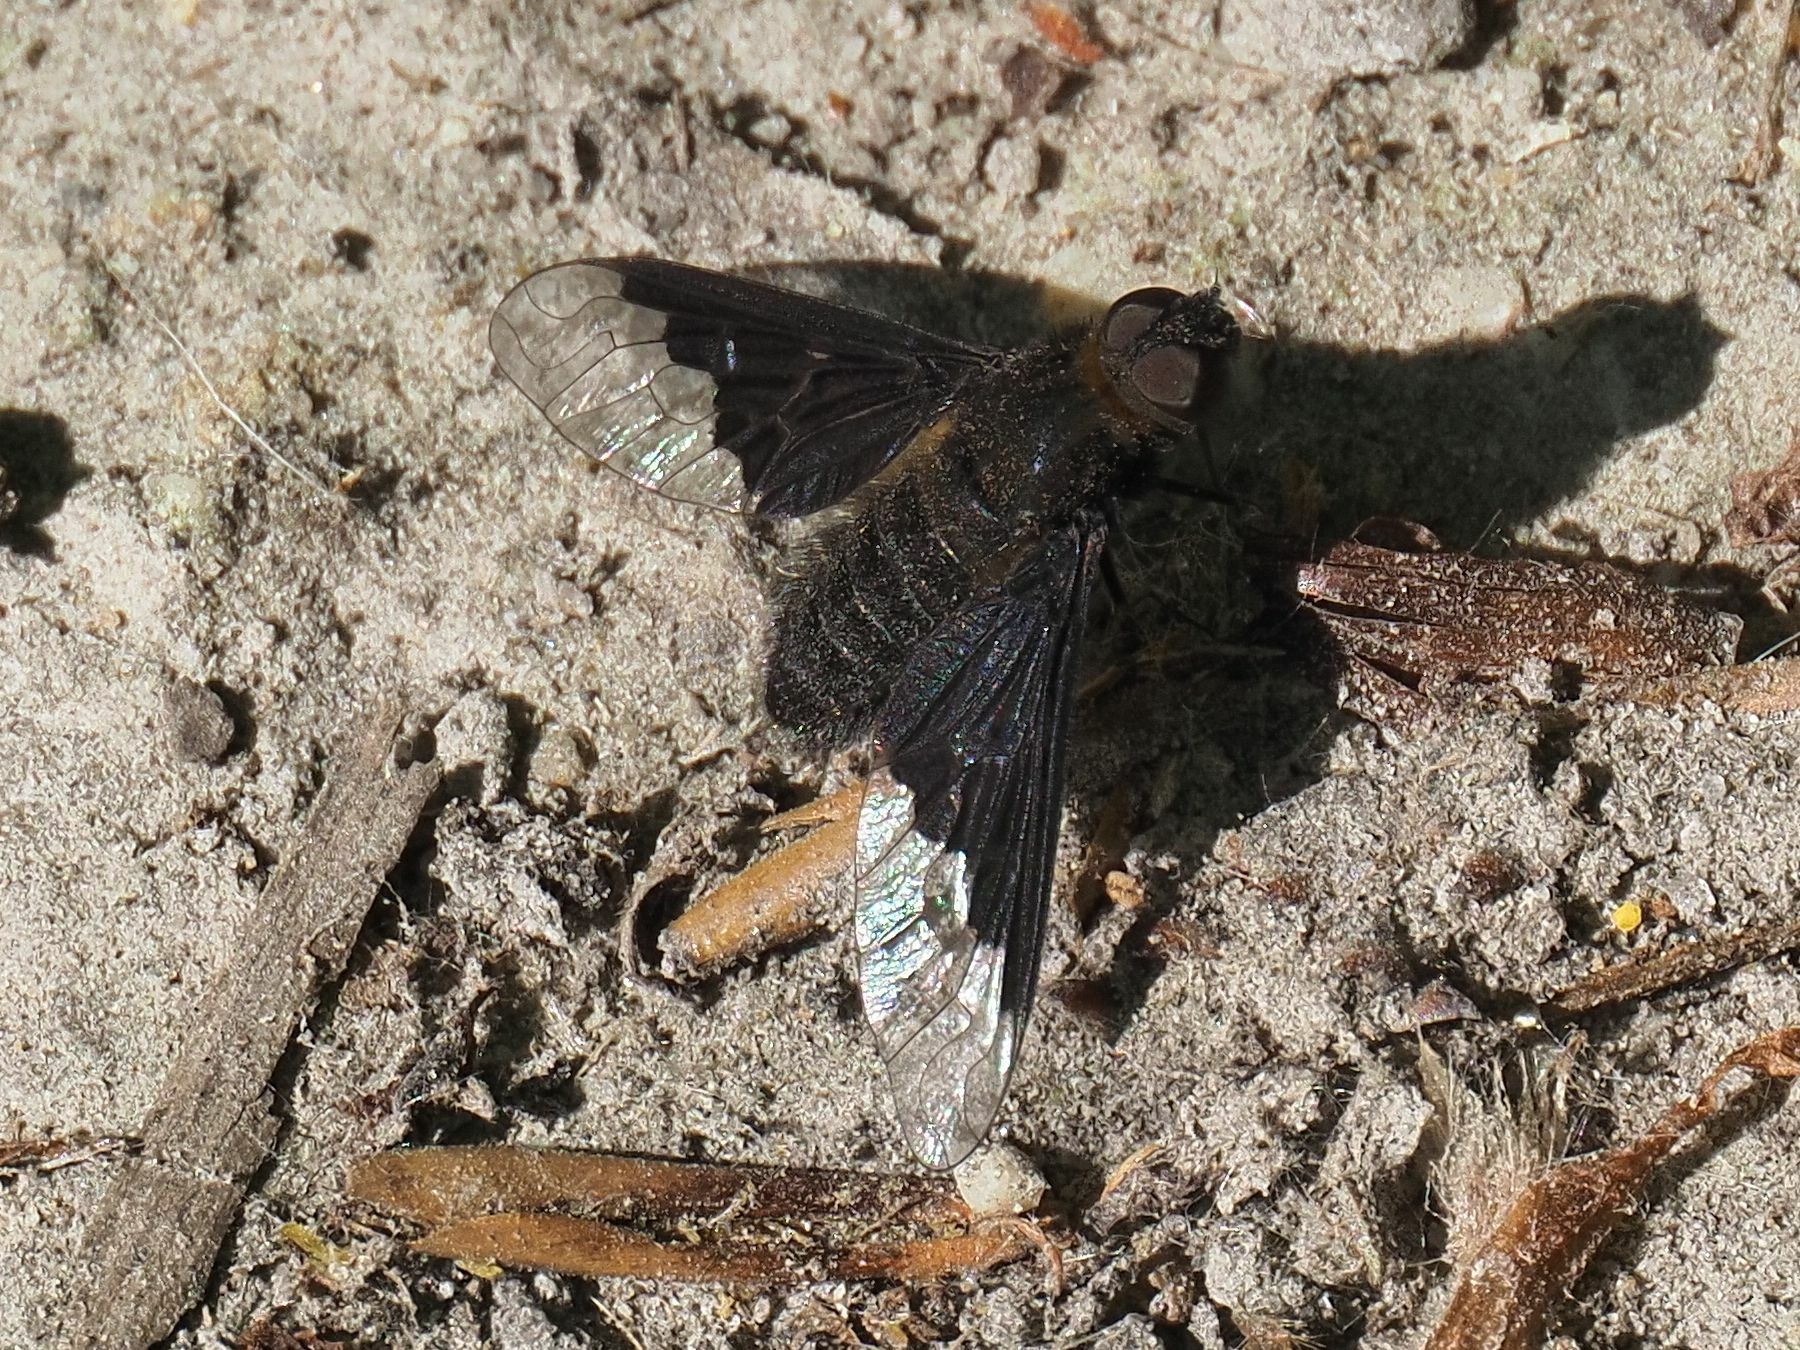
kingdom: Animalia
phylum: Arthropoda
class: Insecta
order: Diptera
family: Bombyliidae
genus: Hemipenthes
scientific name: Hemipenthes morio
